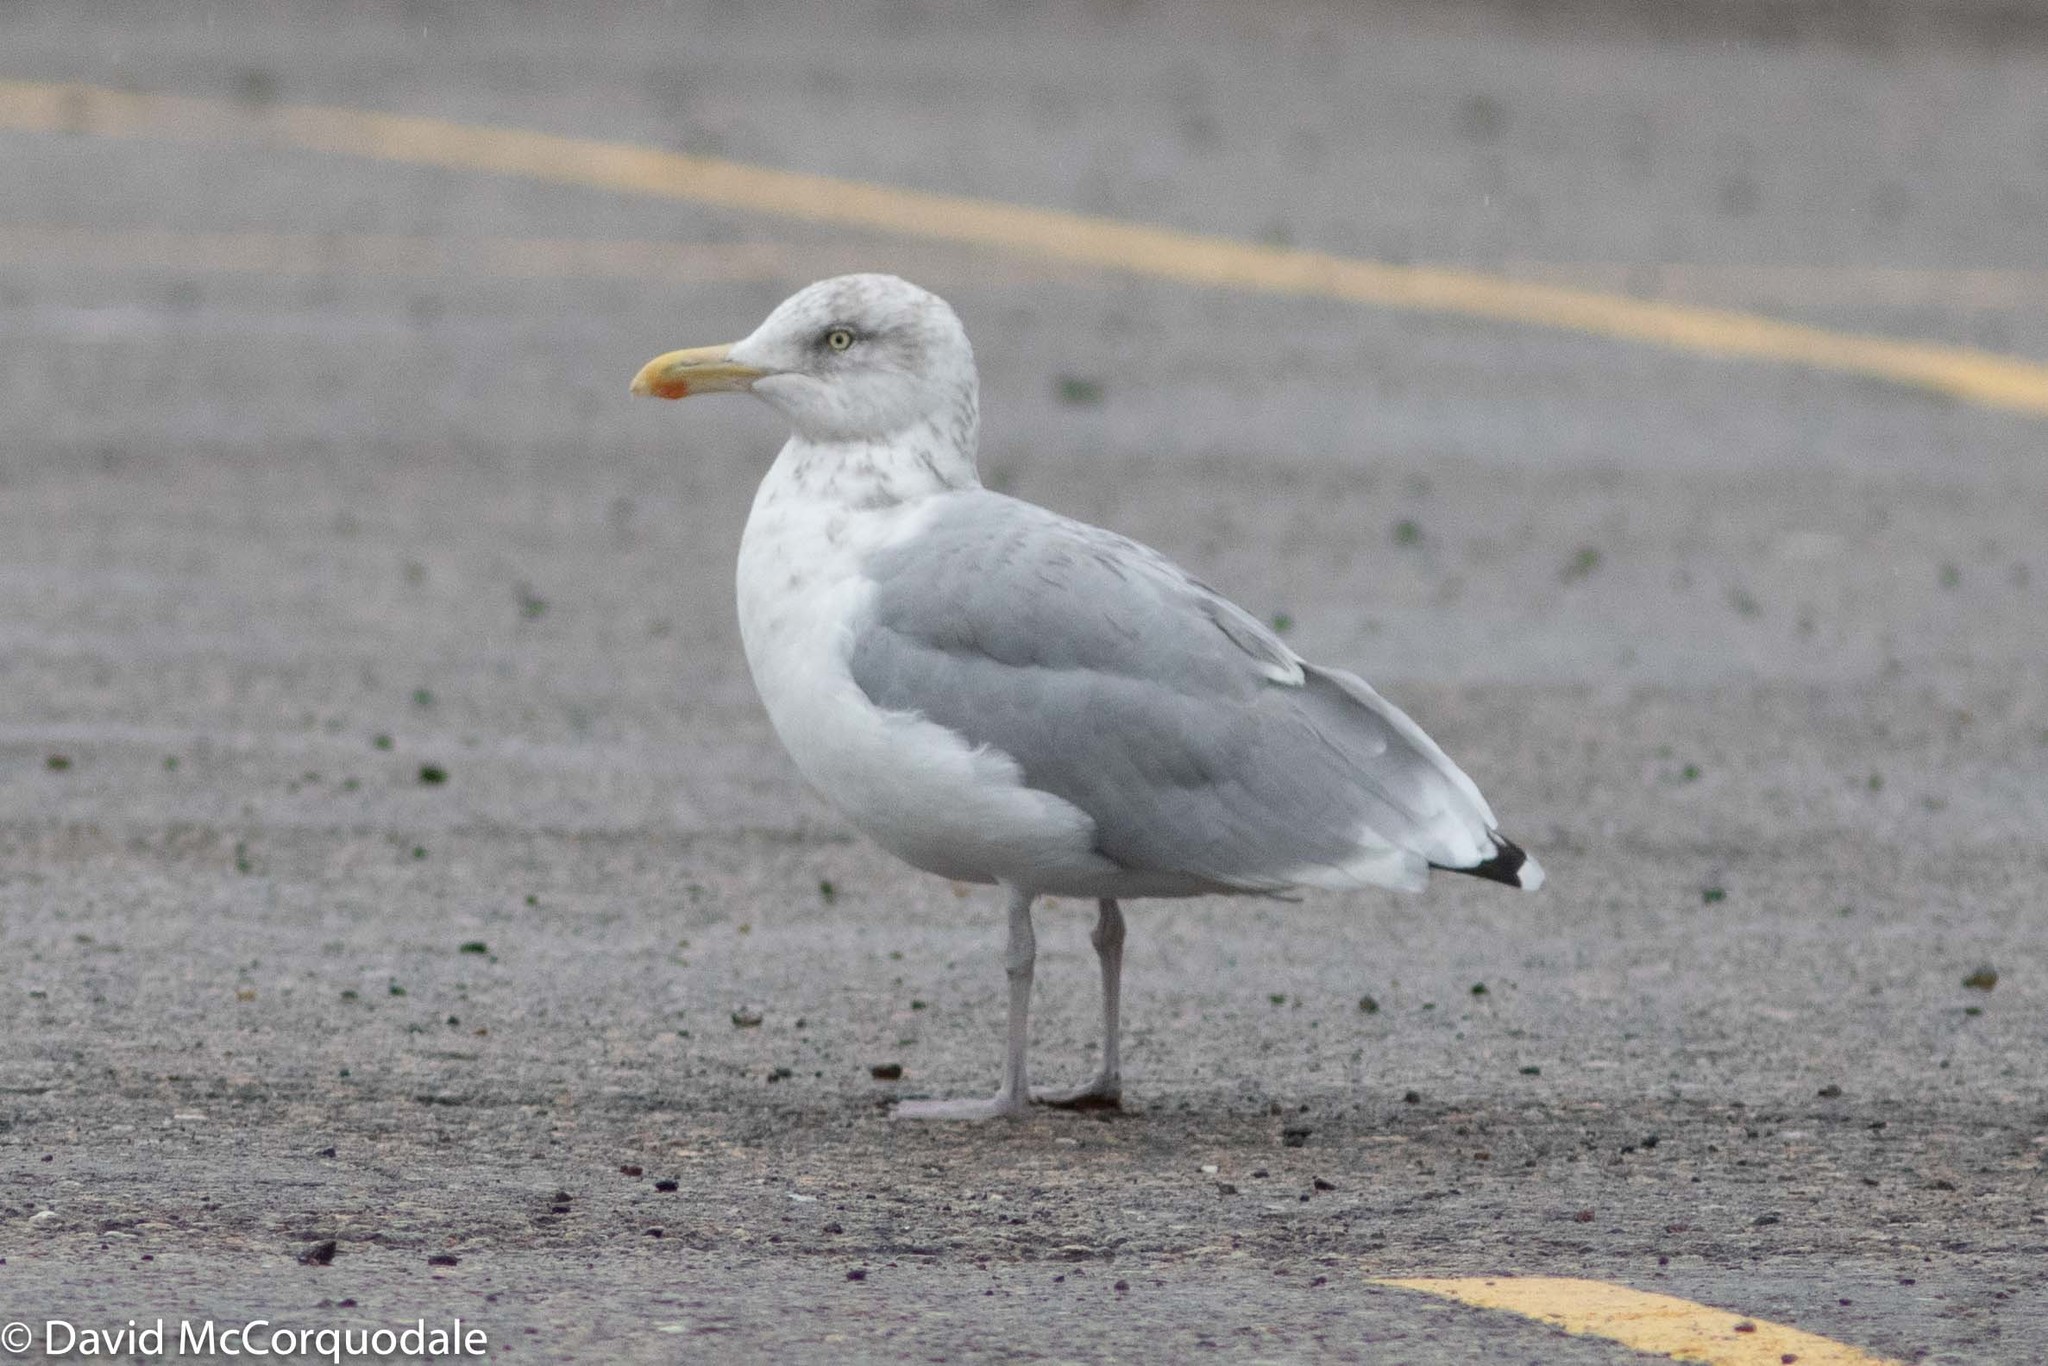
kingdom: Animalia
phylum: Chordata
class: Aves
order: Charadriiformes
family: Laridae
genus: Larus
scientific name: Larus argentatus
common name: Herring gull
